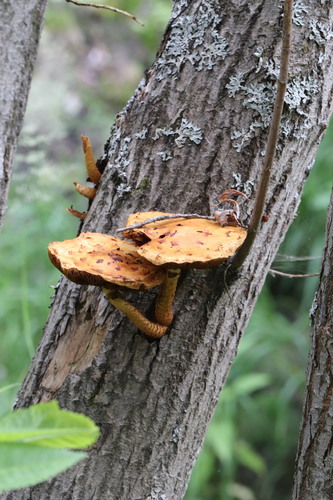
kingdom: Fungi
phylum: Basidiomycota
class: Agaricomycetes
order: Agaricales
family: Strophariaceae
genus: Pholiota
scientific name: Pholiota
